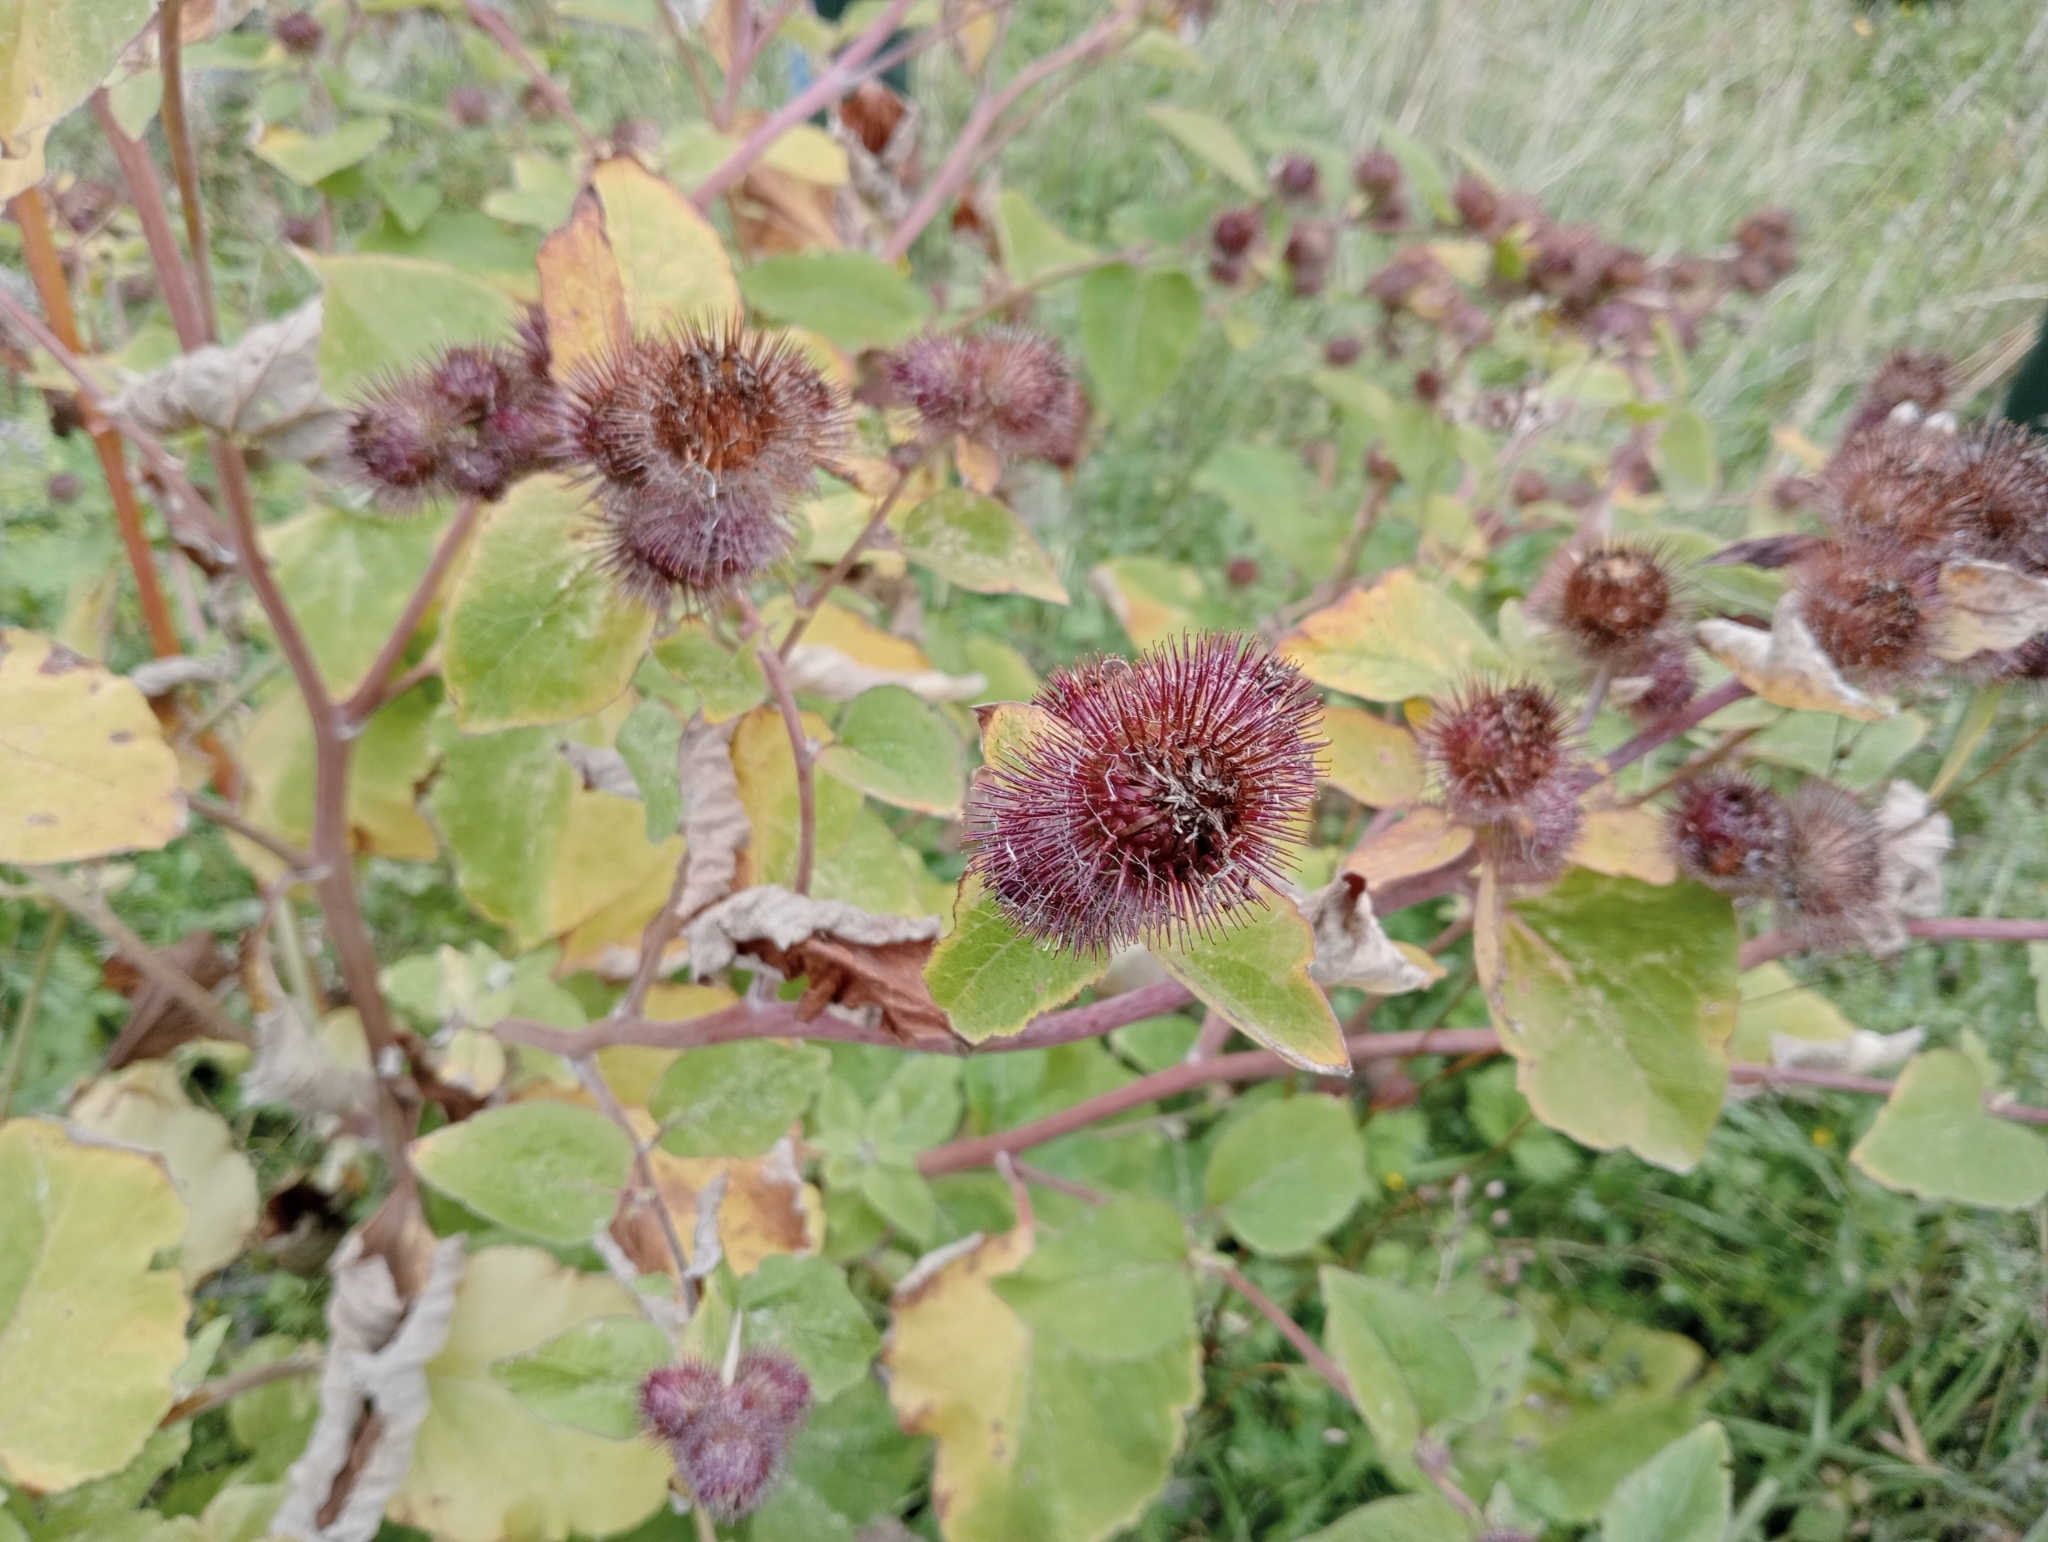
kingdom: Plantae
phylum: Tracheophyta
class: Magnoliopsida
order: Asterales
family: Asteraceae
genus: Arctium
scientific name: Arctium minus
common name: Lesser burdock
